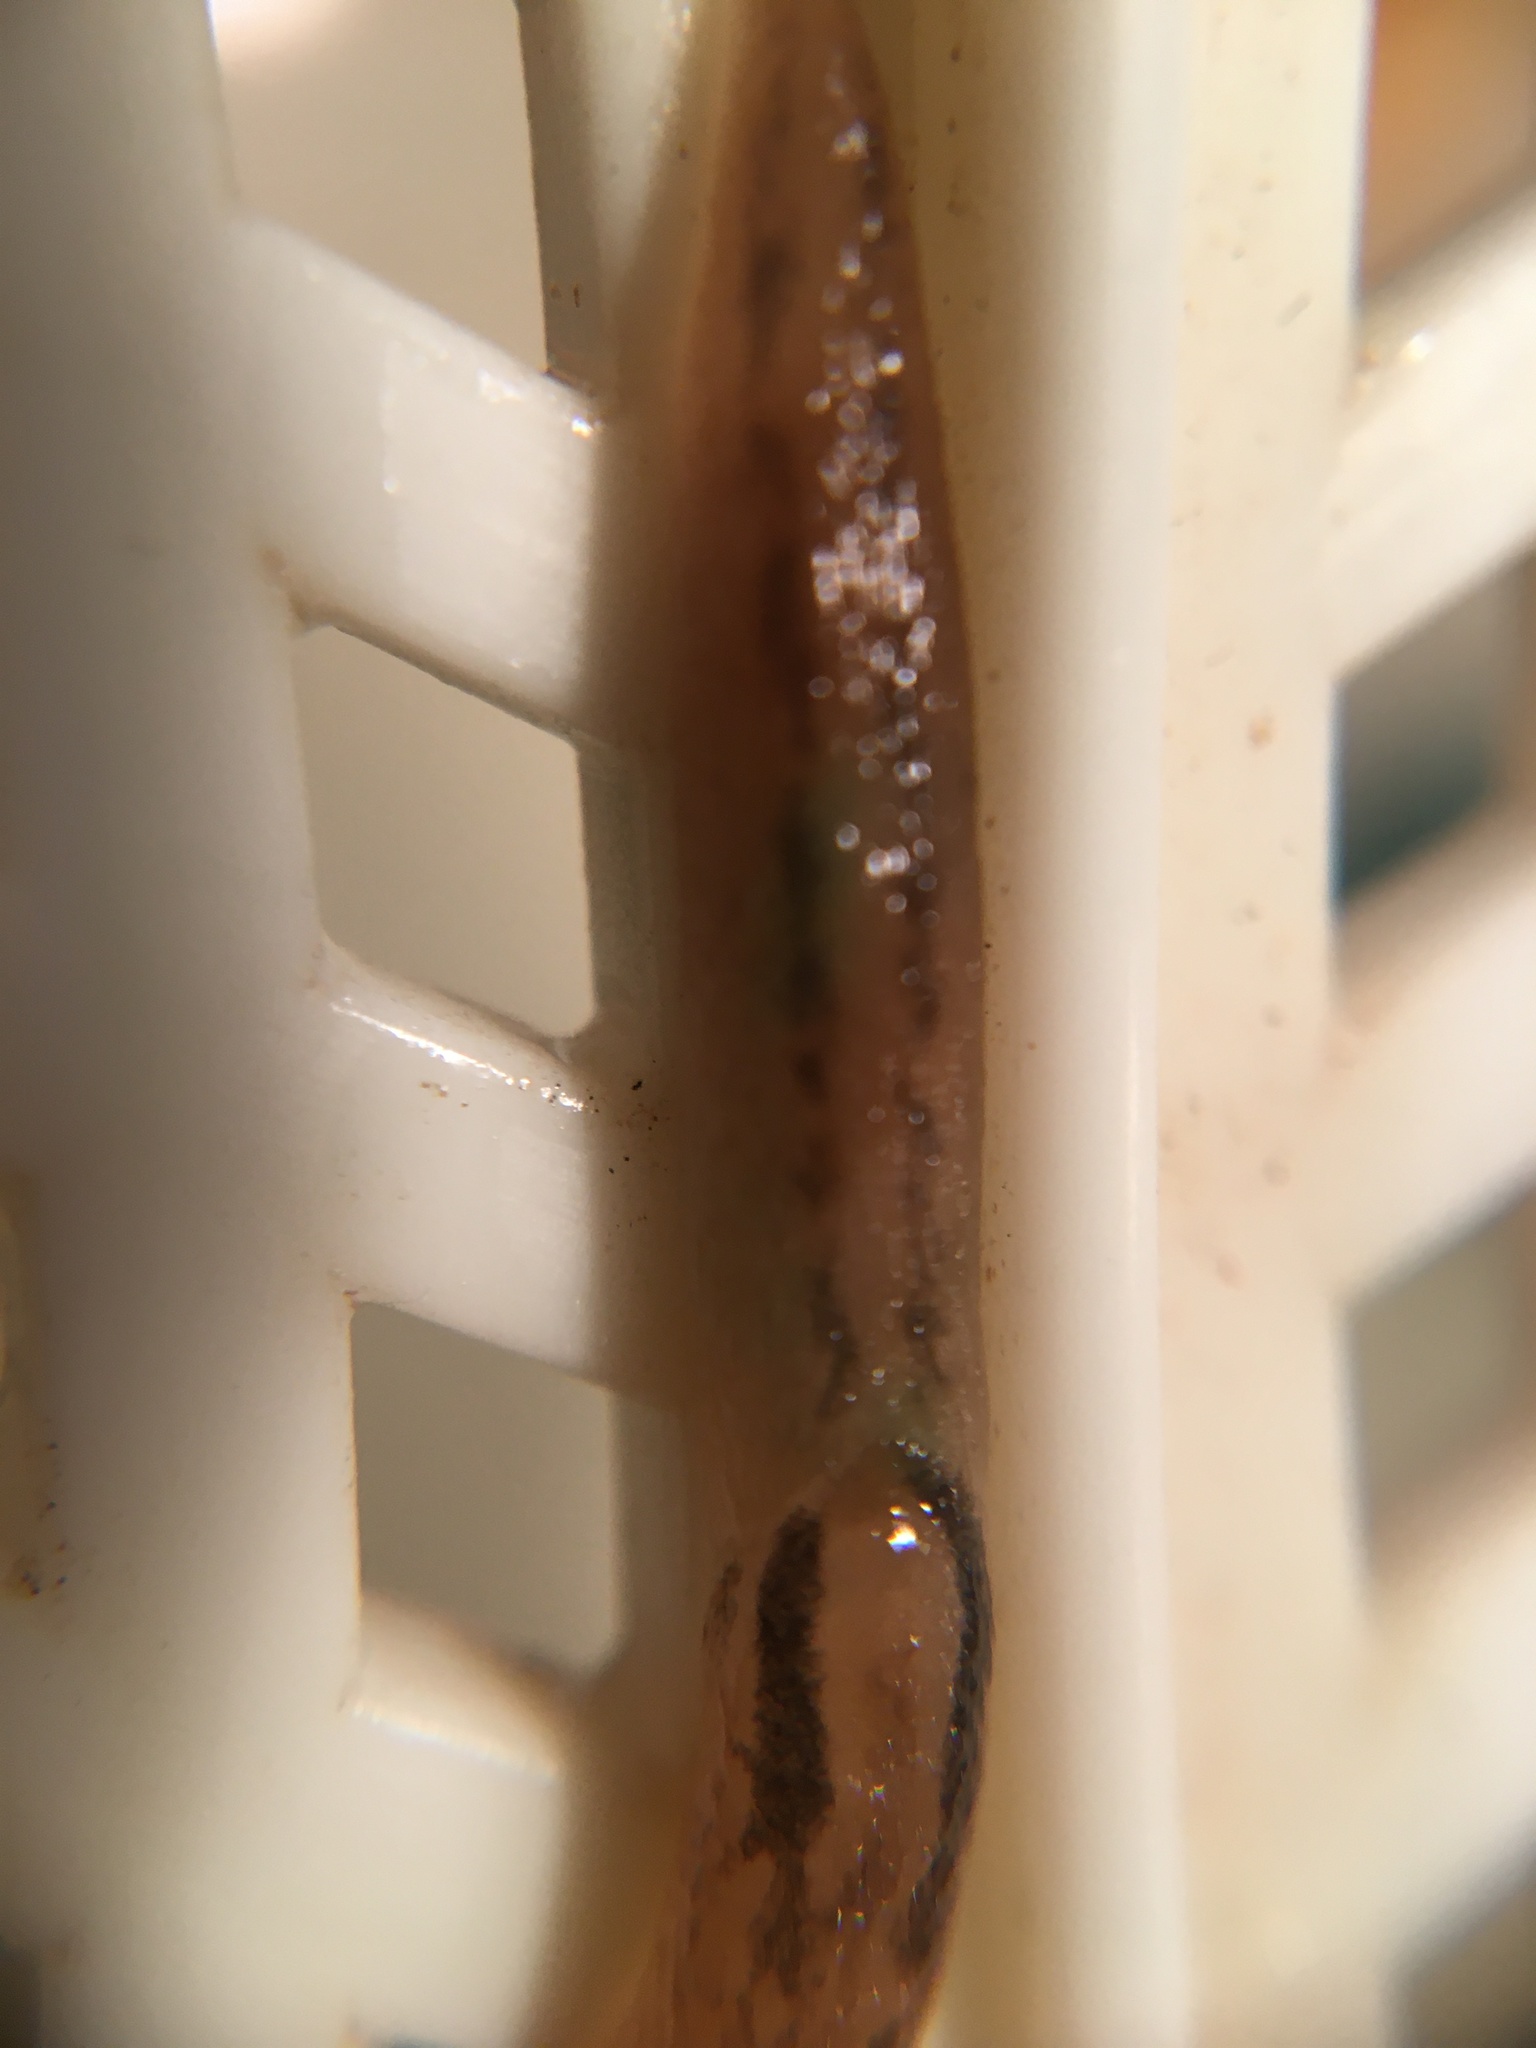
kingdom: Animalia
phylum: Mollusca
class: Gastropoda
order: Stylommatophora
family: Limacidae
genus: Ambigolimax
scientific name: Ambigolimax
